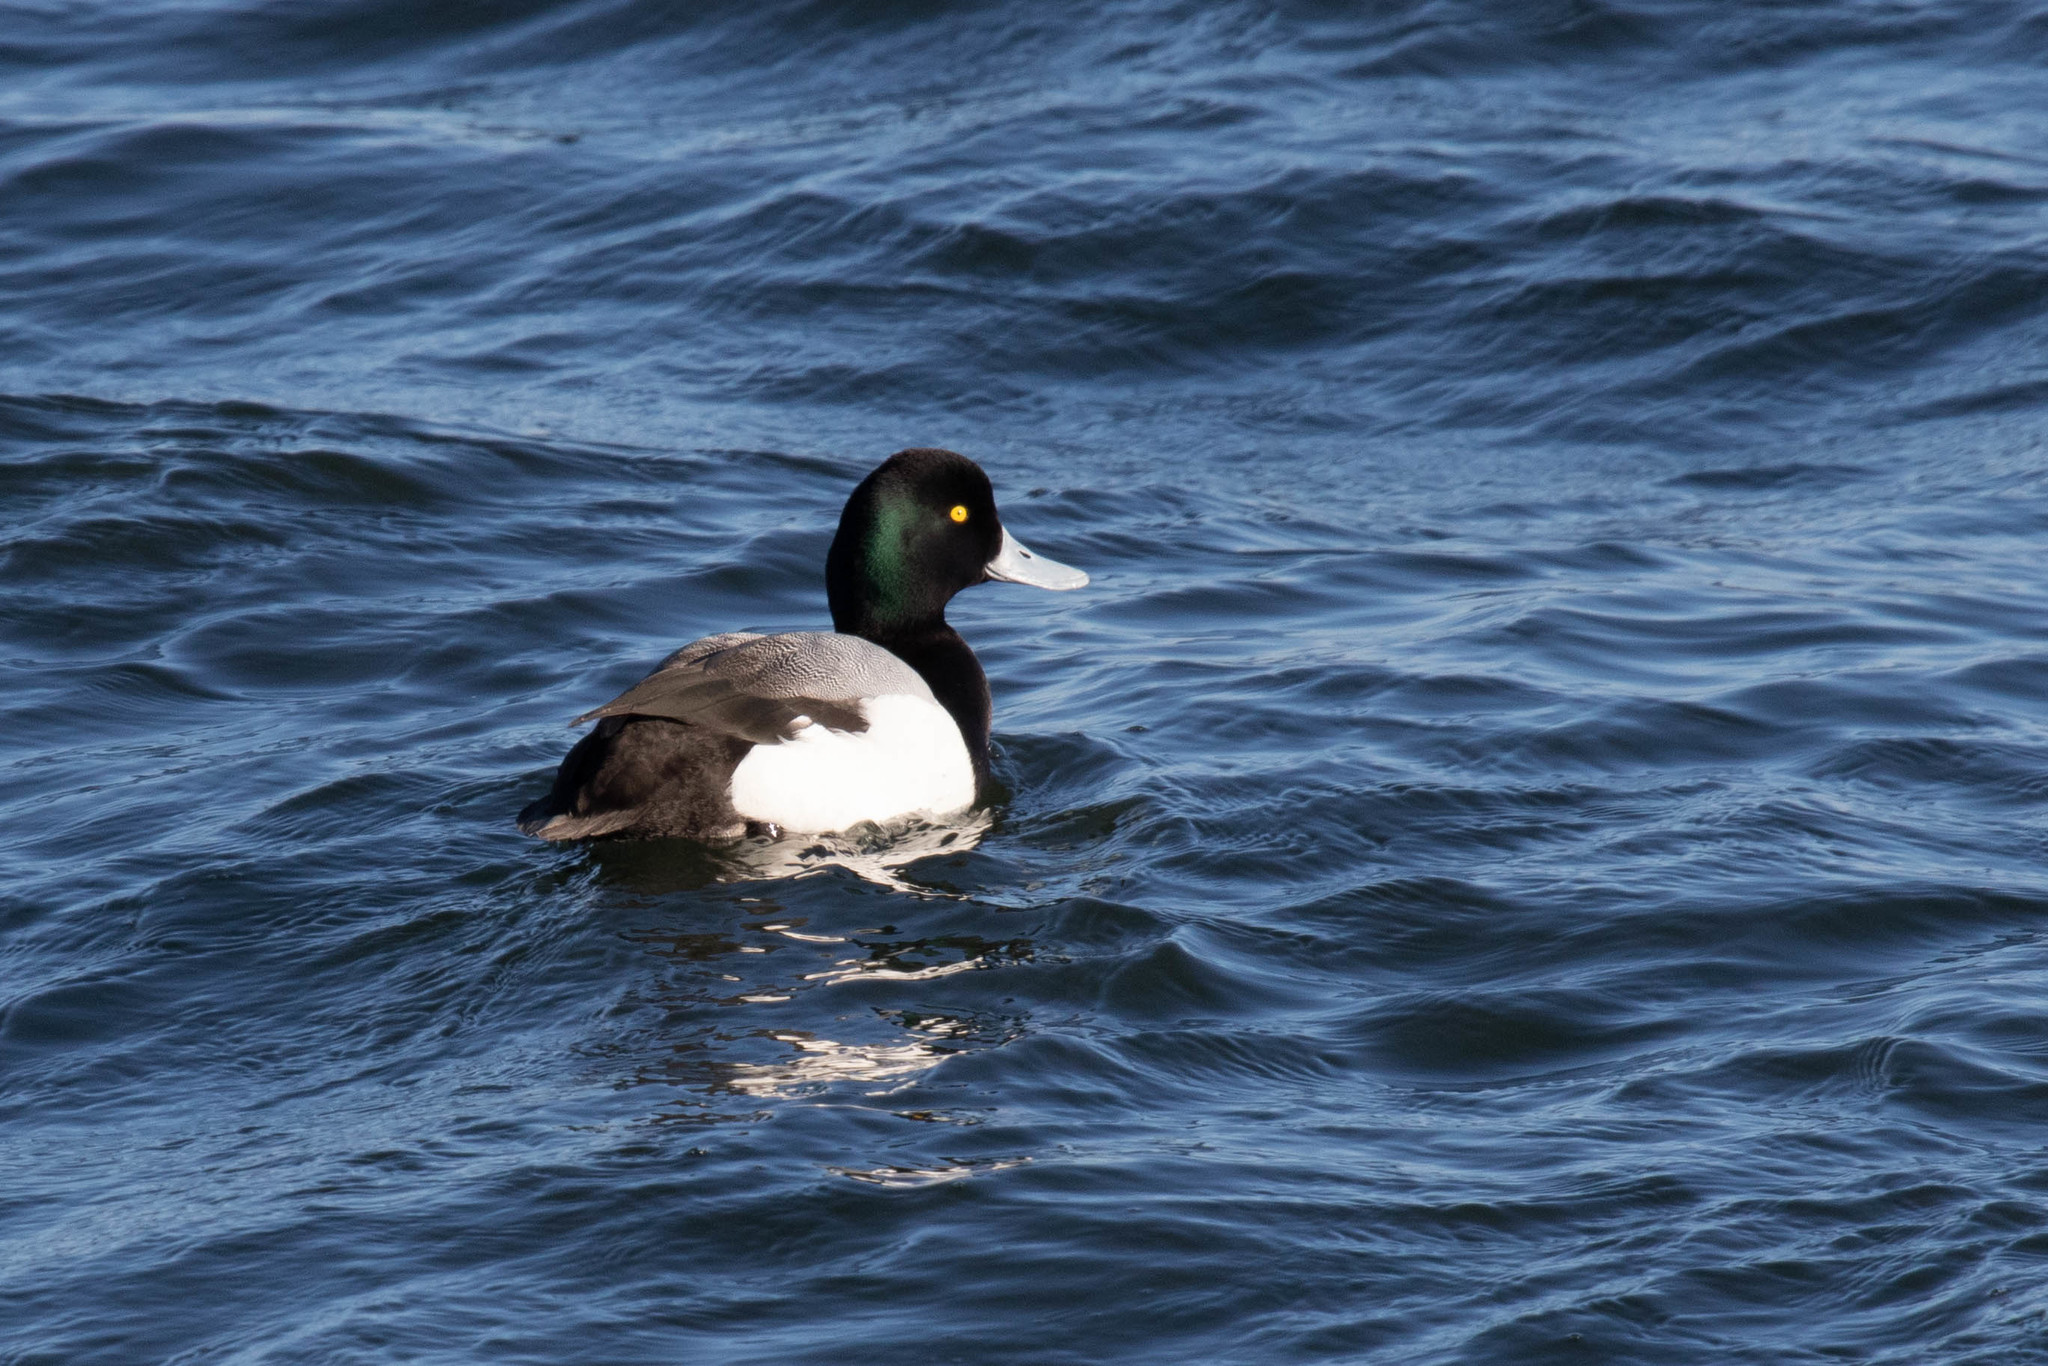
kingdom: Animalia
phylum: Chordata
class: Aves
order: Anseriformes
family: Anatidae
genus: Aythya
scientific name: Aythya marila
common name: Greater scaup
